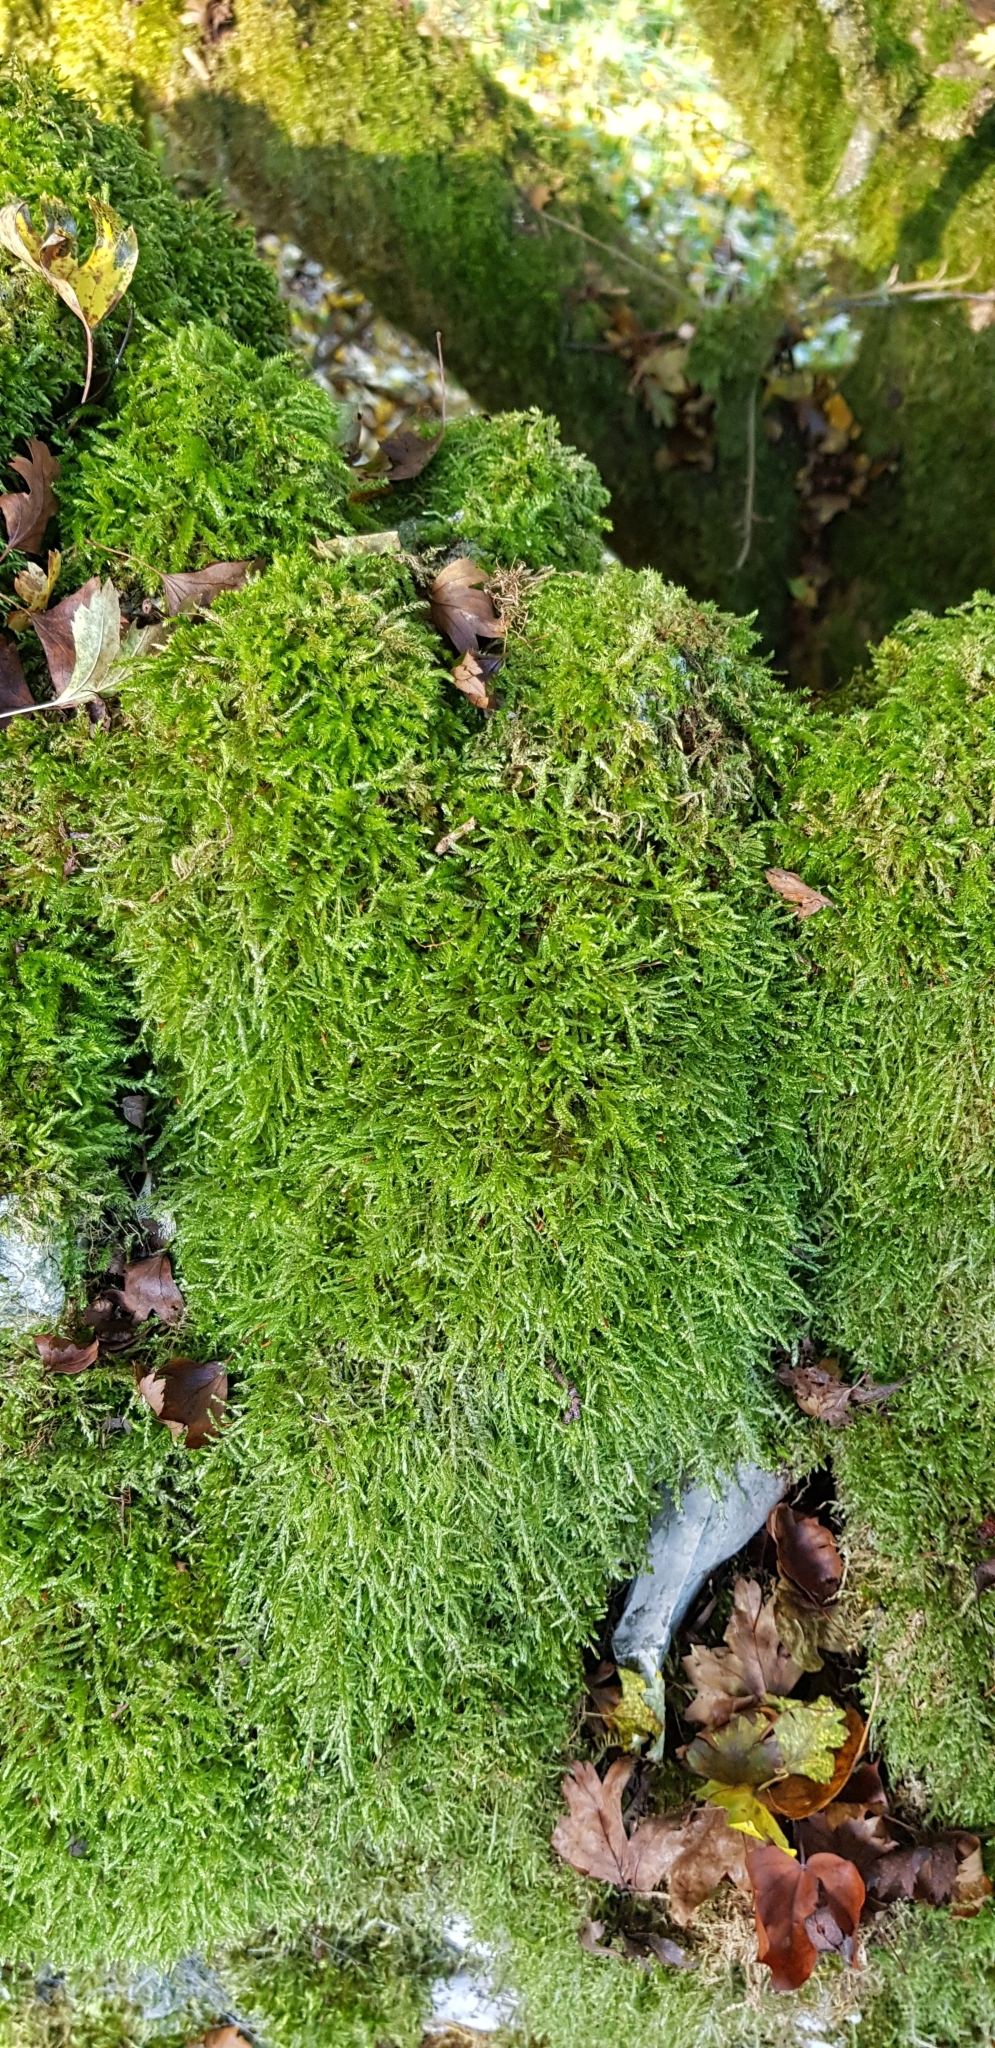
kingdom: Plantae
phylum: Bryophyta
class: Bryopsida
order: Hypnales
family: Hypnaceae
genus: Hypnum
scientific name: Hypnum cupressiforme
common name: Cypress-leaved plait-moss
